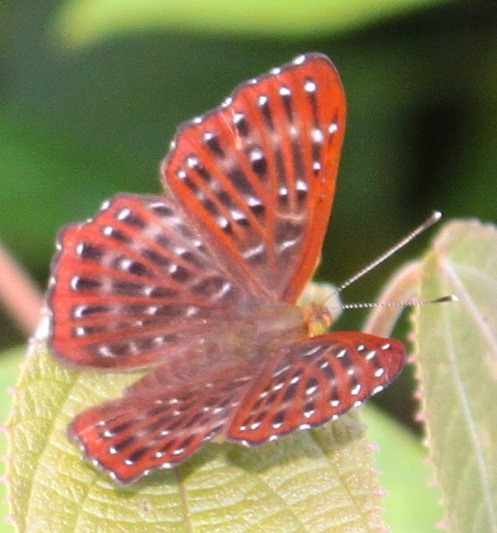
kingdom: Animalia
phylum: Arthropoda
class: Insecta
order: Lepidoptera
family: Riodinidae
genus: Zemeros
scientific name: Zemeros flegyas
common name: Punchinello
